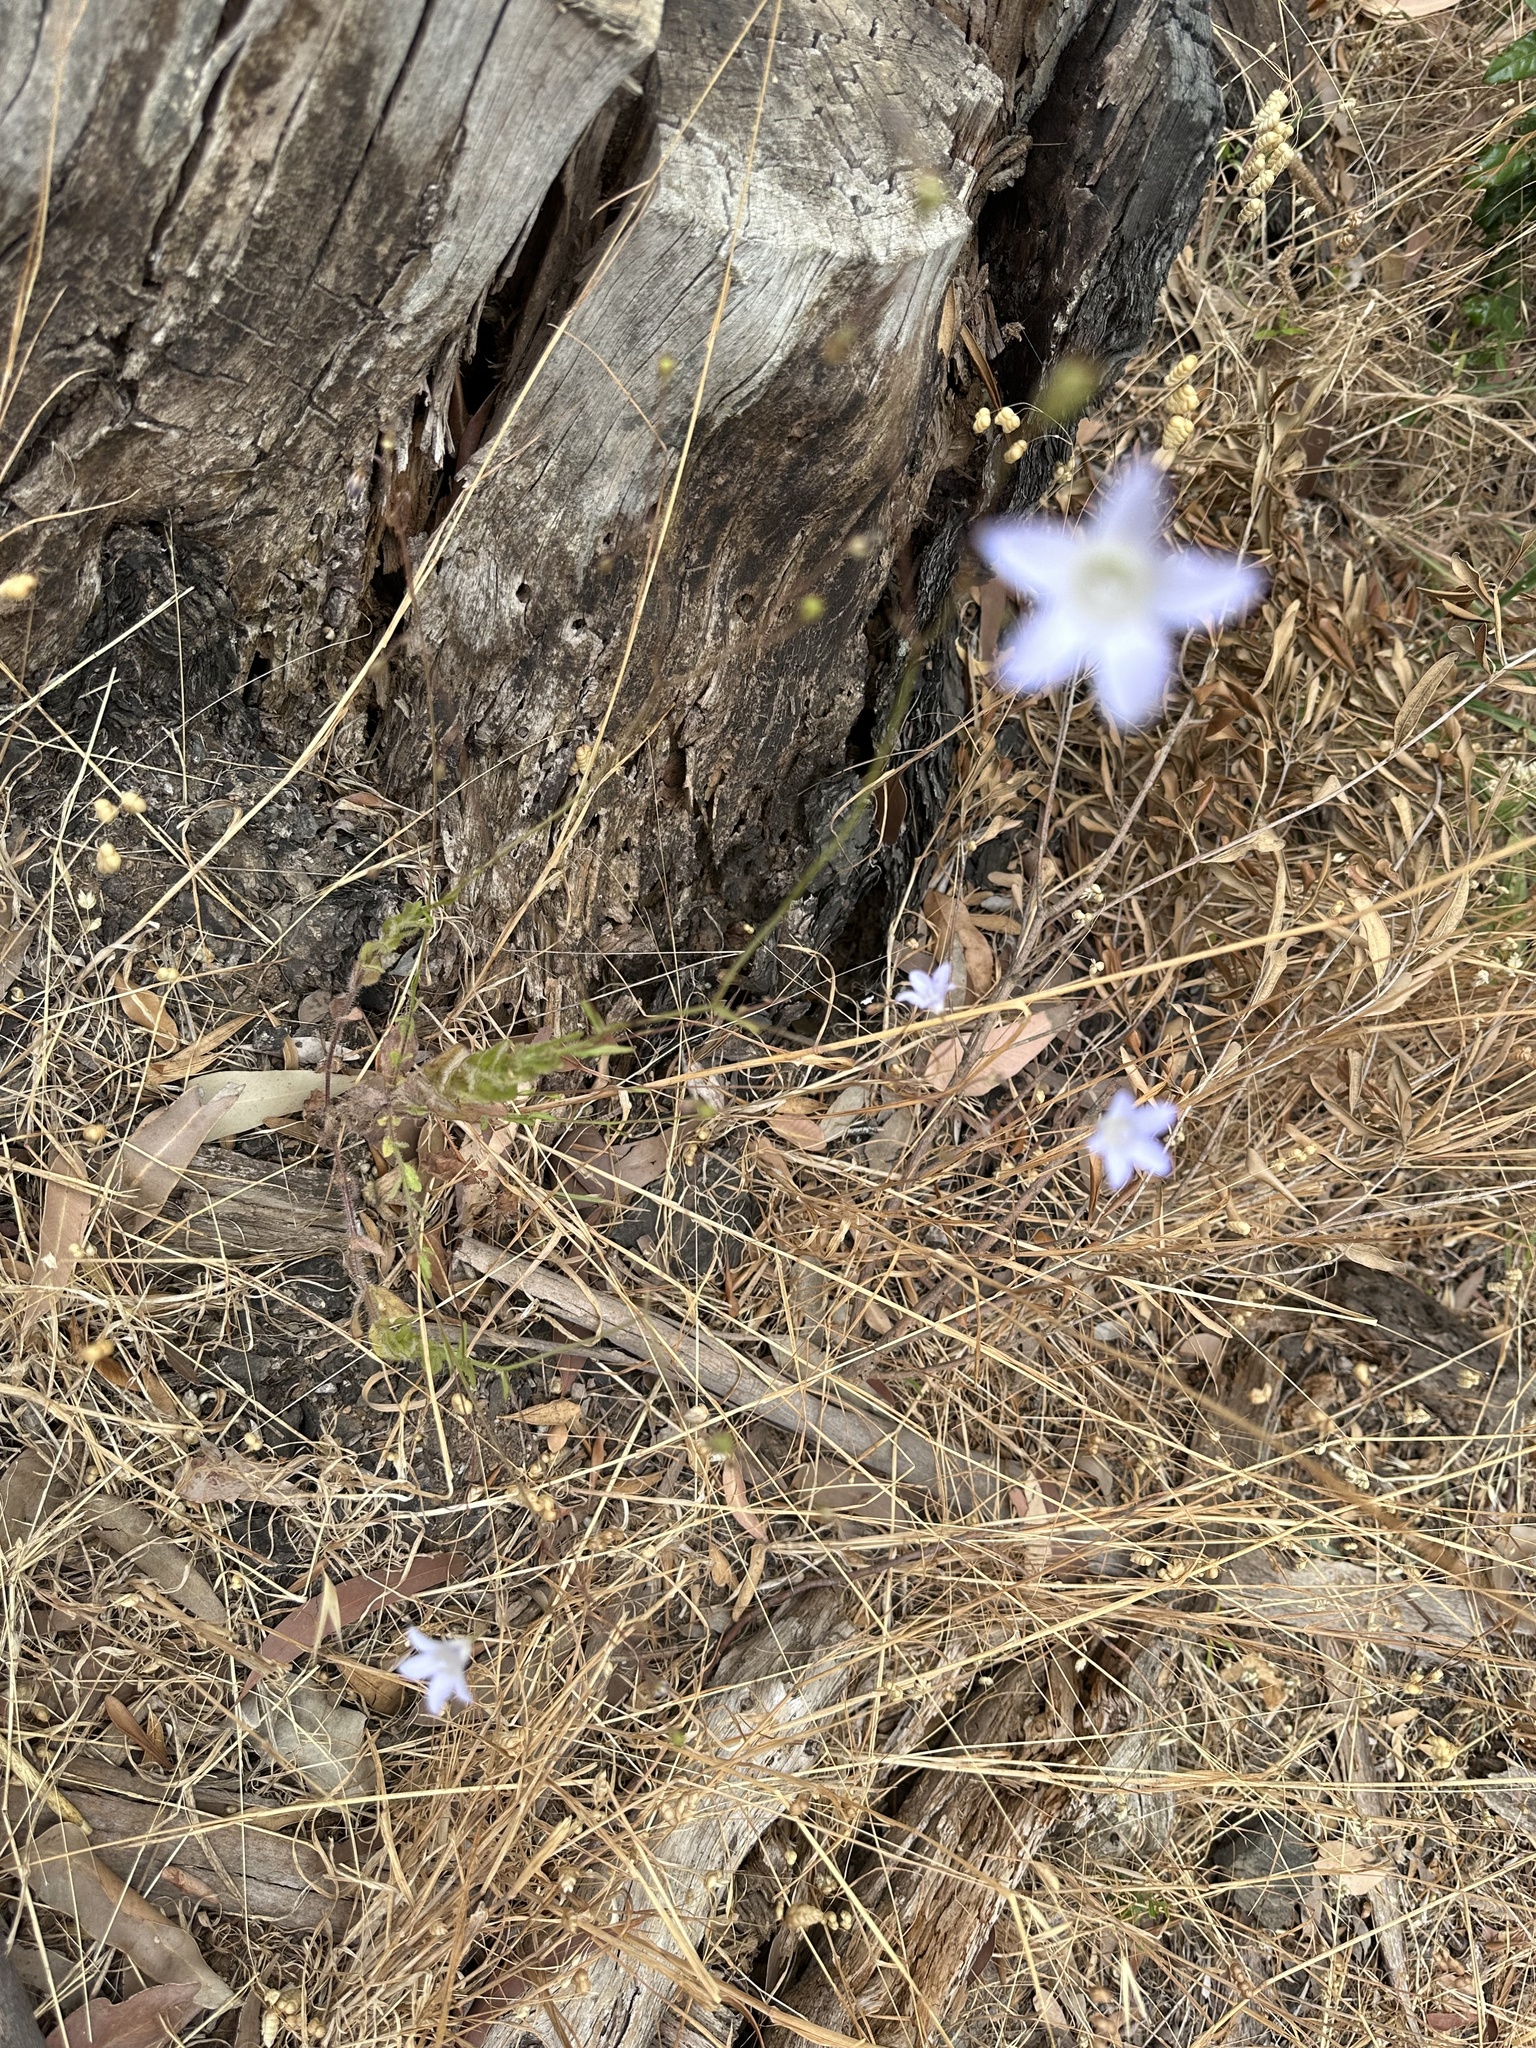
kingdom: Plantae
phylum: Tracheophyta
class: Magnoliopsida
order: Asterales
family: Campanulaceae
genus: Wahlenbergia
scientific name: Wahlenbergia obovata
